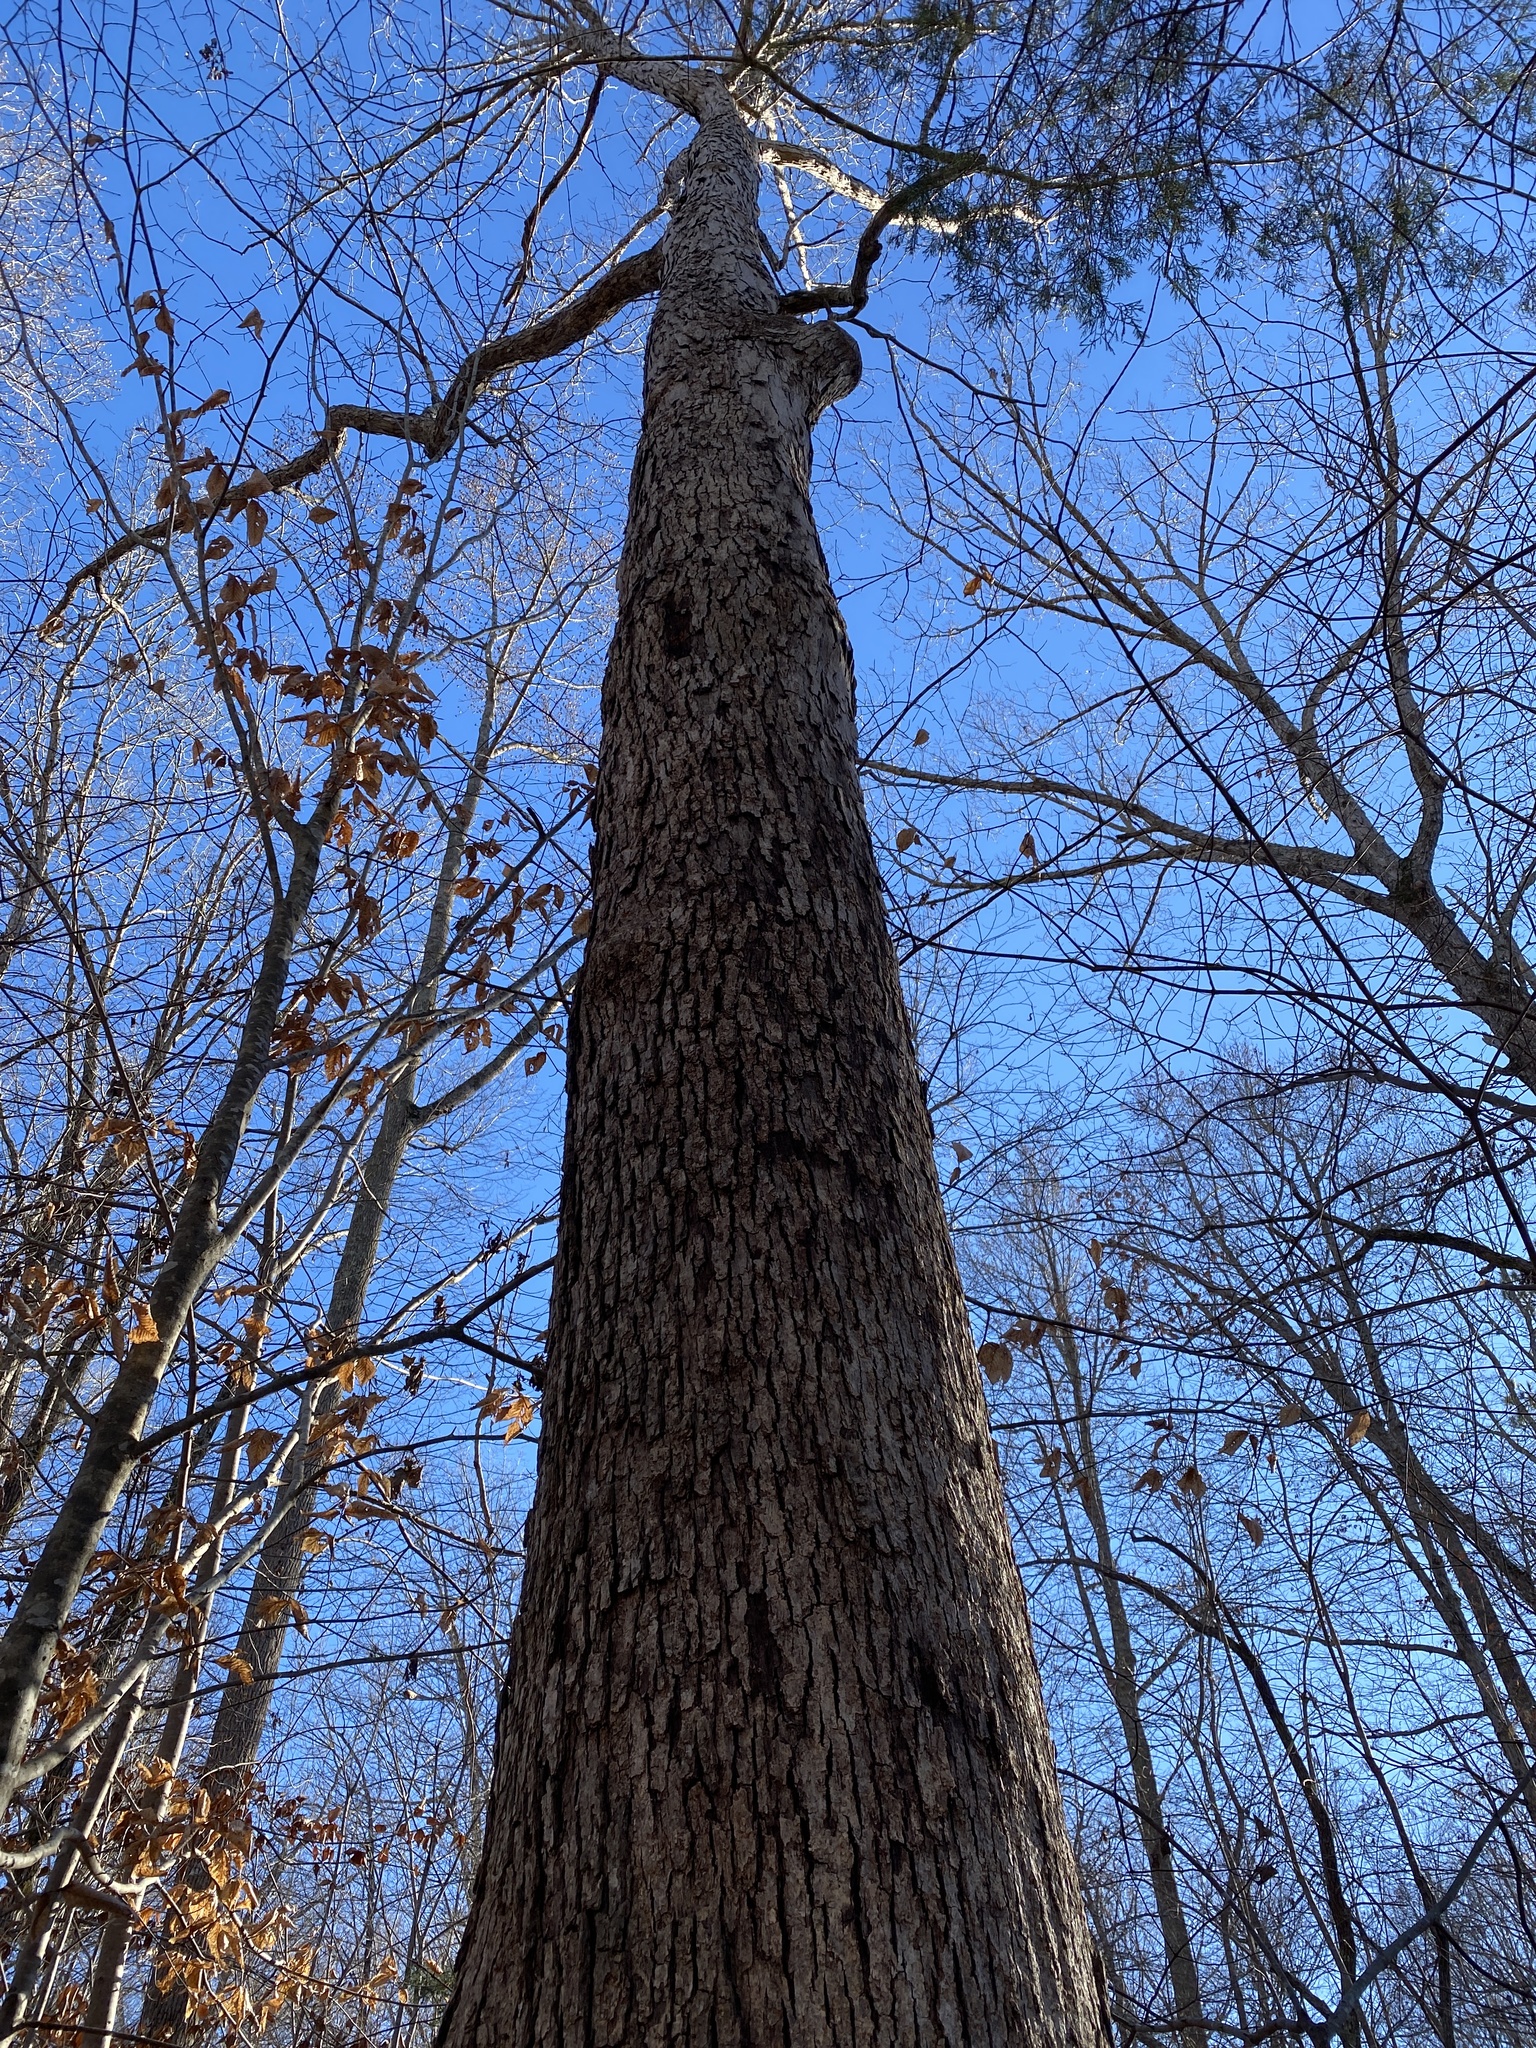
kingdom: Plantae
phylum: Tracheophyta
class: Magnoliopsida
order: Fagales
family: Fagaceae
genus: Quercus
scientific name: Quercus alba
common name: White oak
